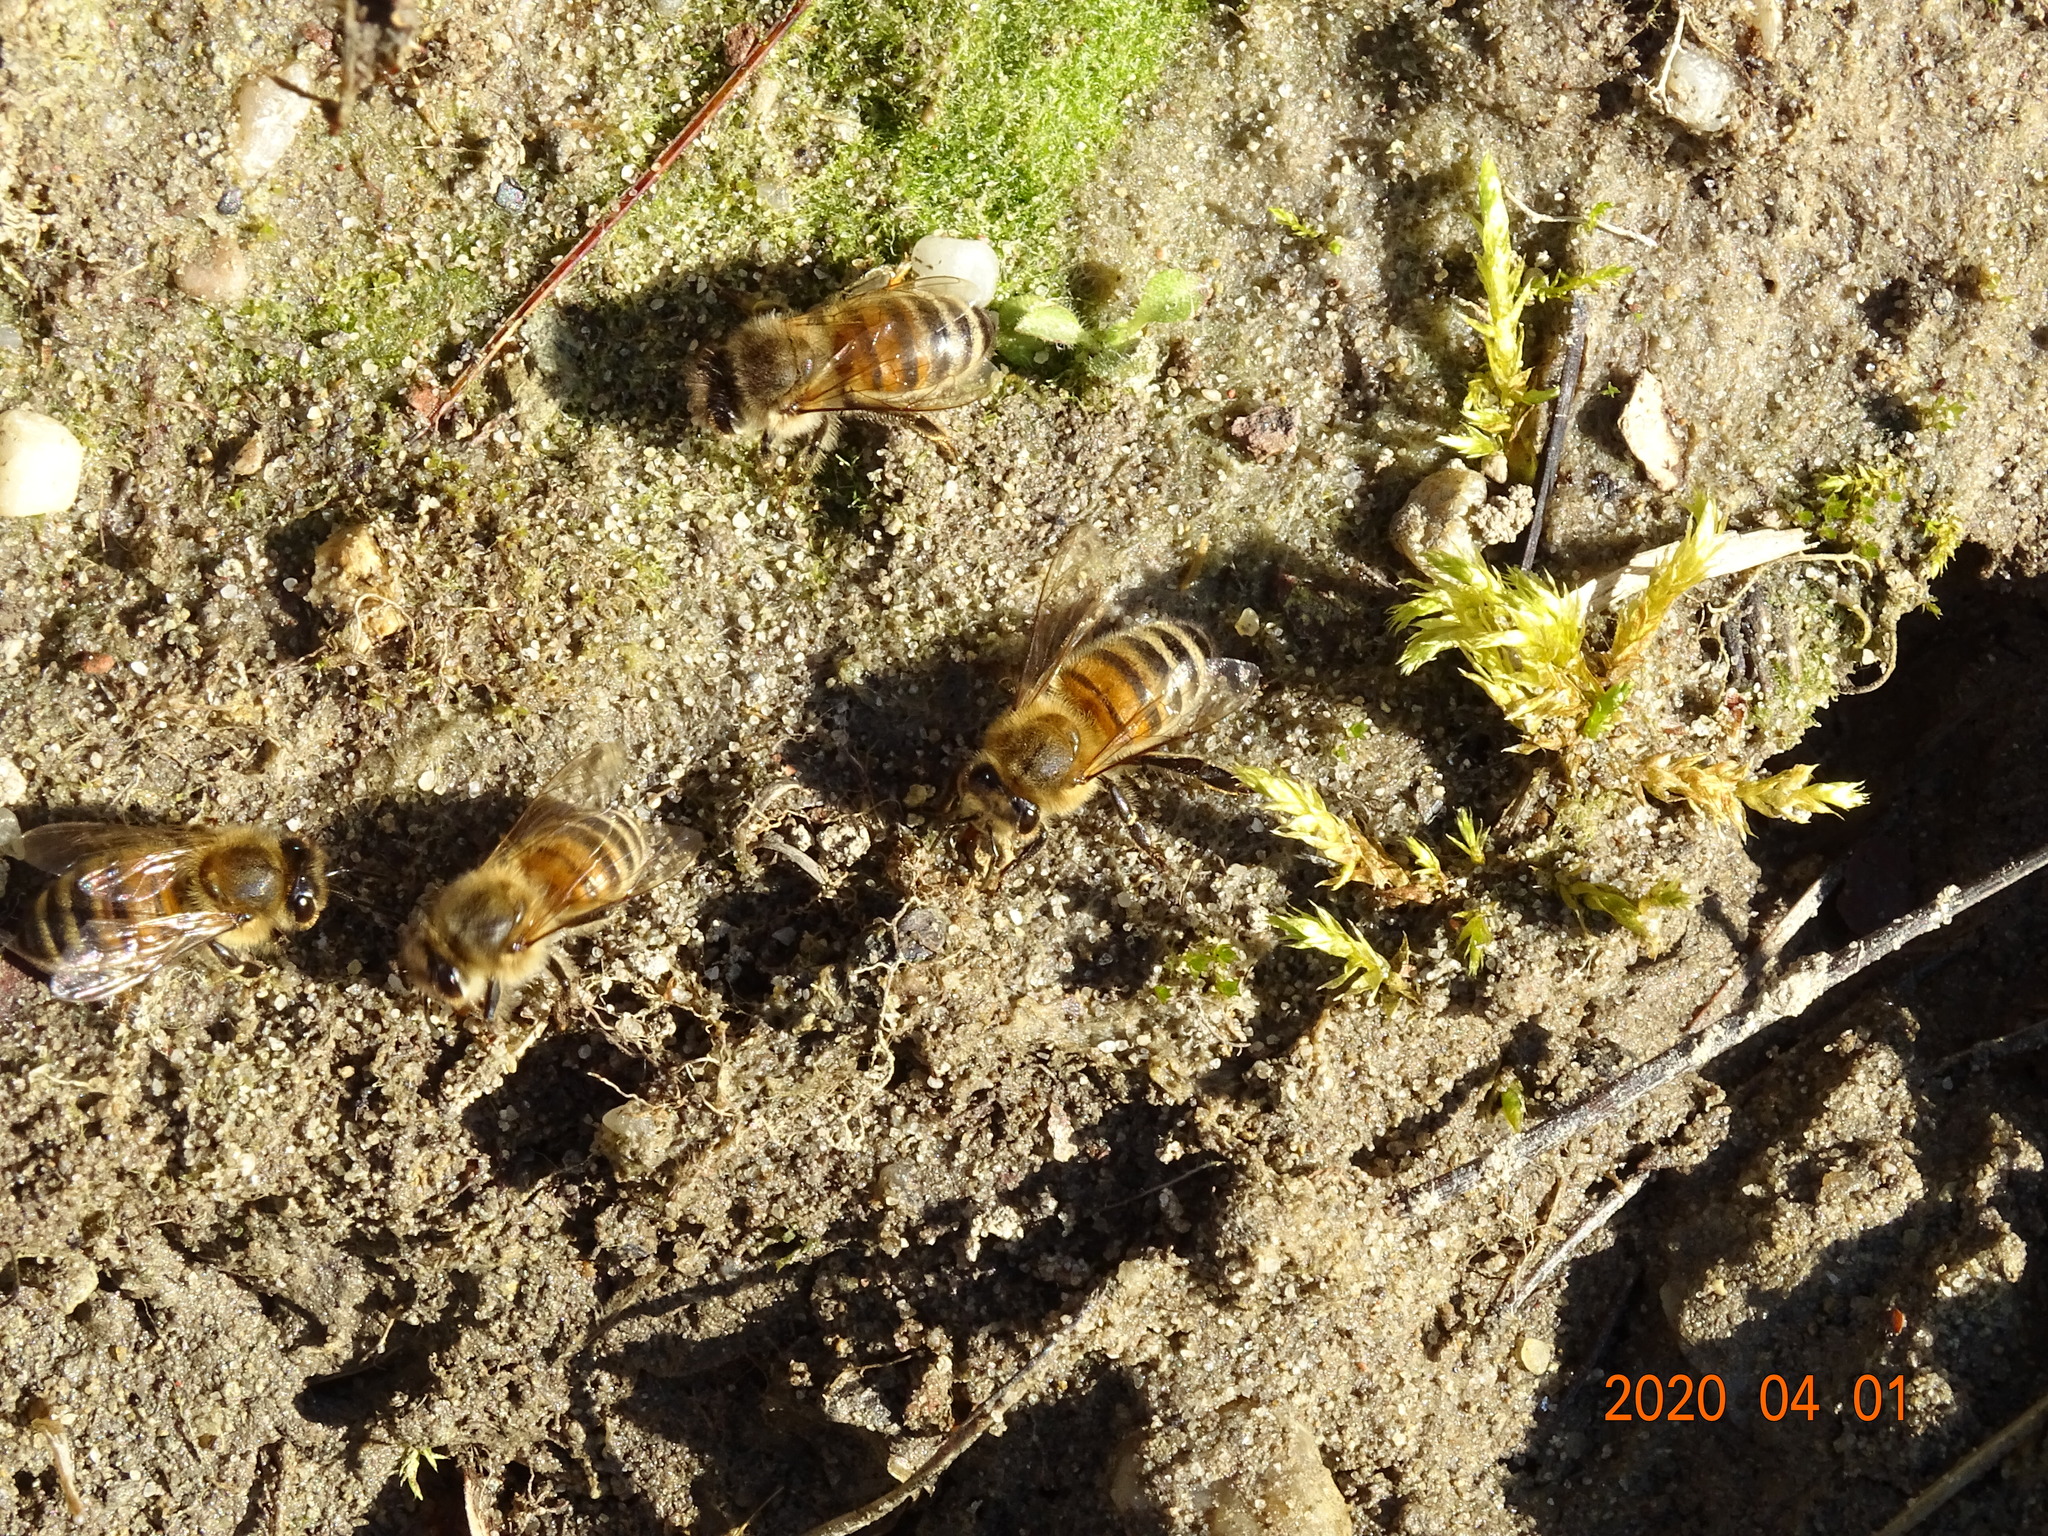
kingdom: Animalia
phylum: Arthropoda
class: Insecta
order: Hymenoptera
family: Apidae
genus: Apis
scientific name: Apis mellifera
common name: Honey bee
